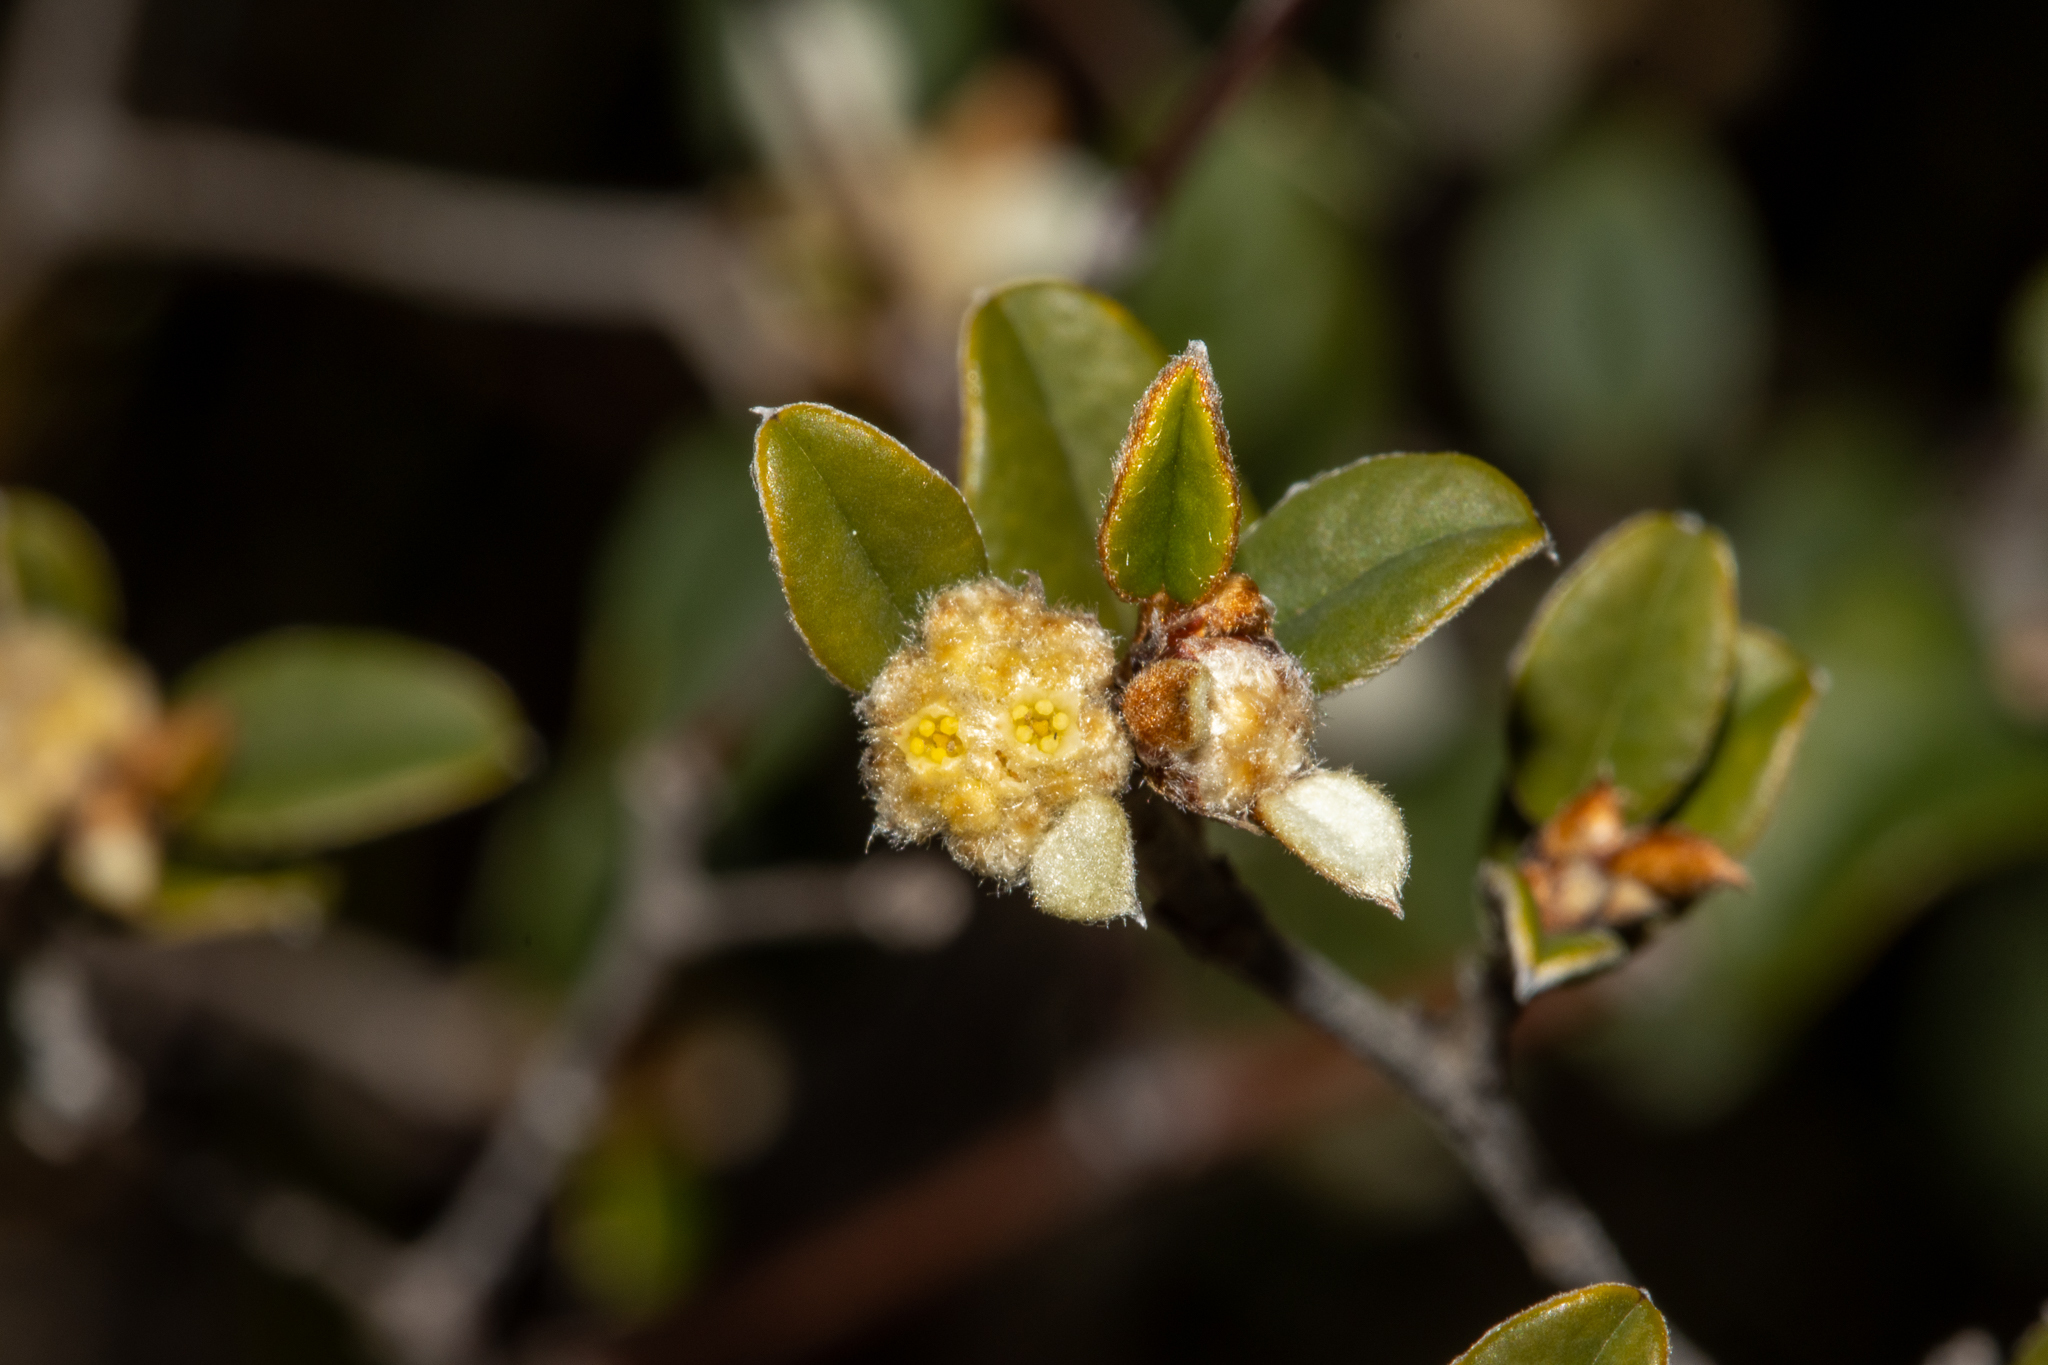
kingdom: Plantae
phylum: Tracheophyta
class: Magnoliopsida
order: Rosales
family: Rhamnaceae
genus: Spyridium
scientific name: Spyridium thymifolium
